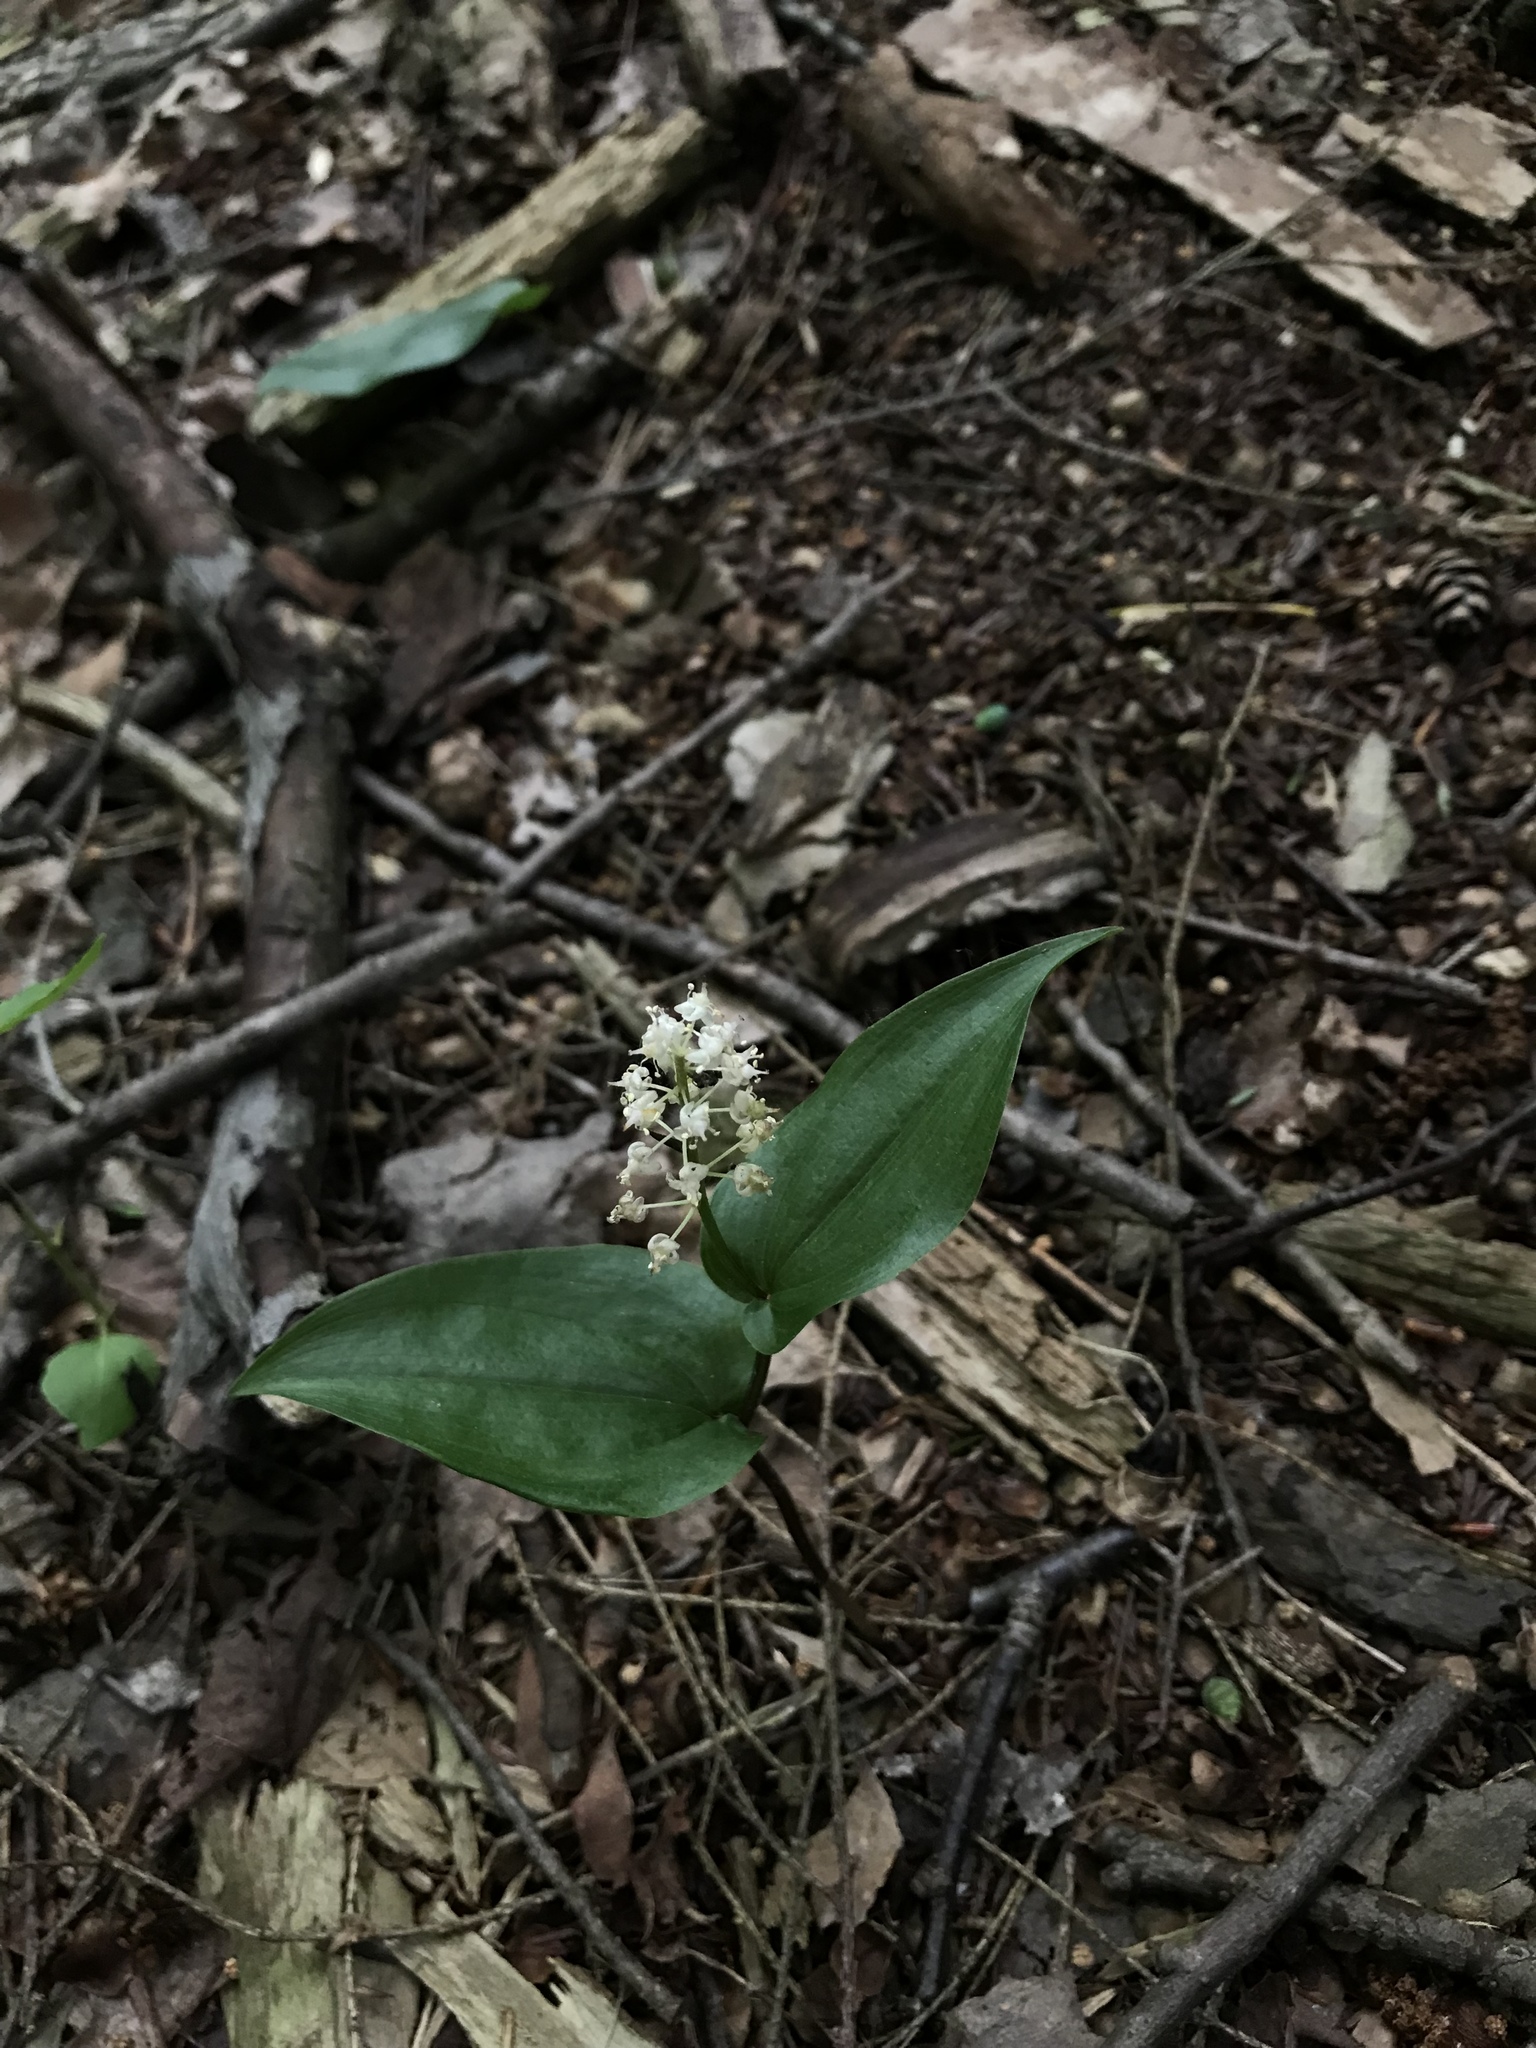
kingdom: Plantae
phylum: Tracheophyta
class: Liliopsida
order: Asparagales
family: Asparagaceae
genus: Maianthemum
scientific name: Maianthemum canadense
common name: False lily-of-the-valley
